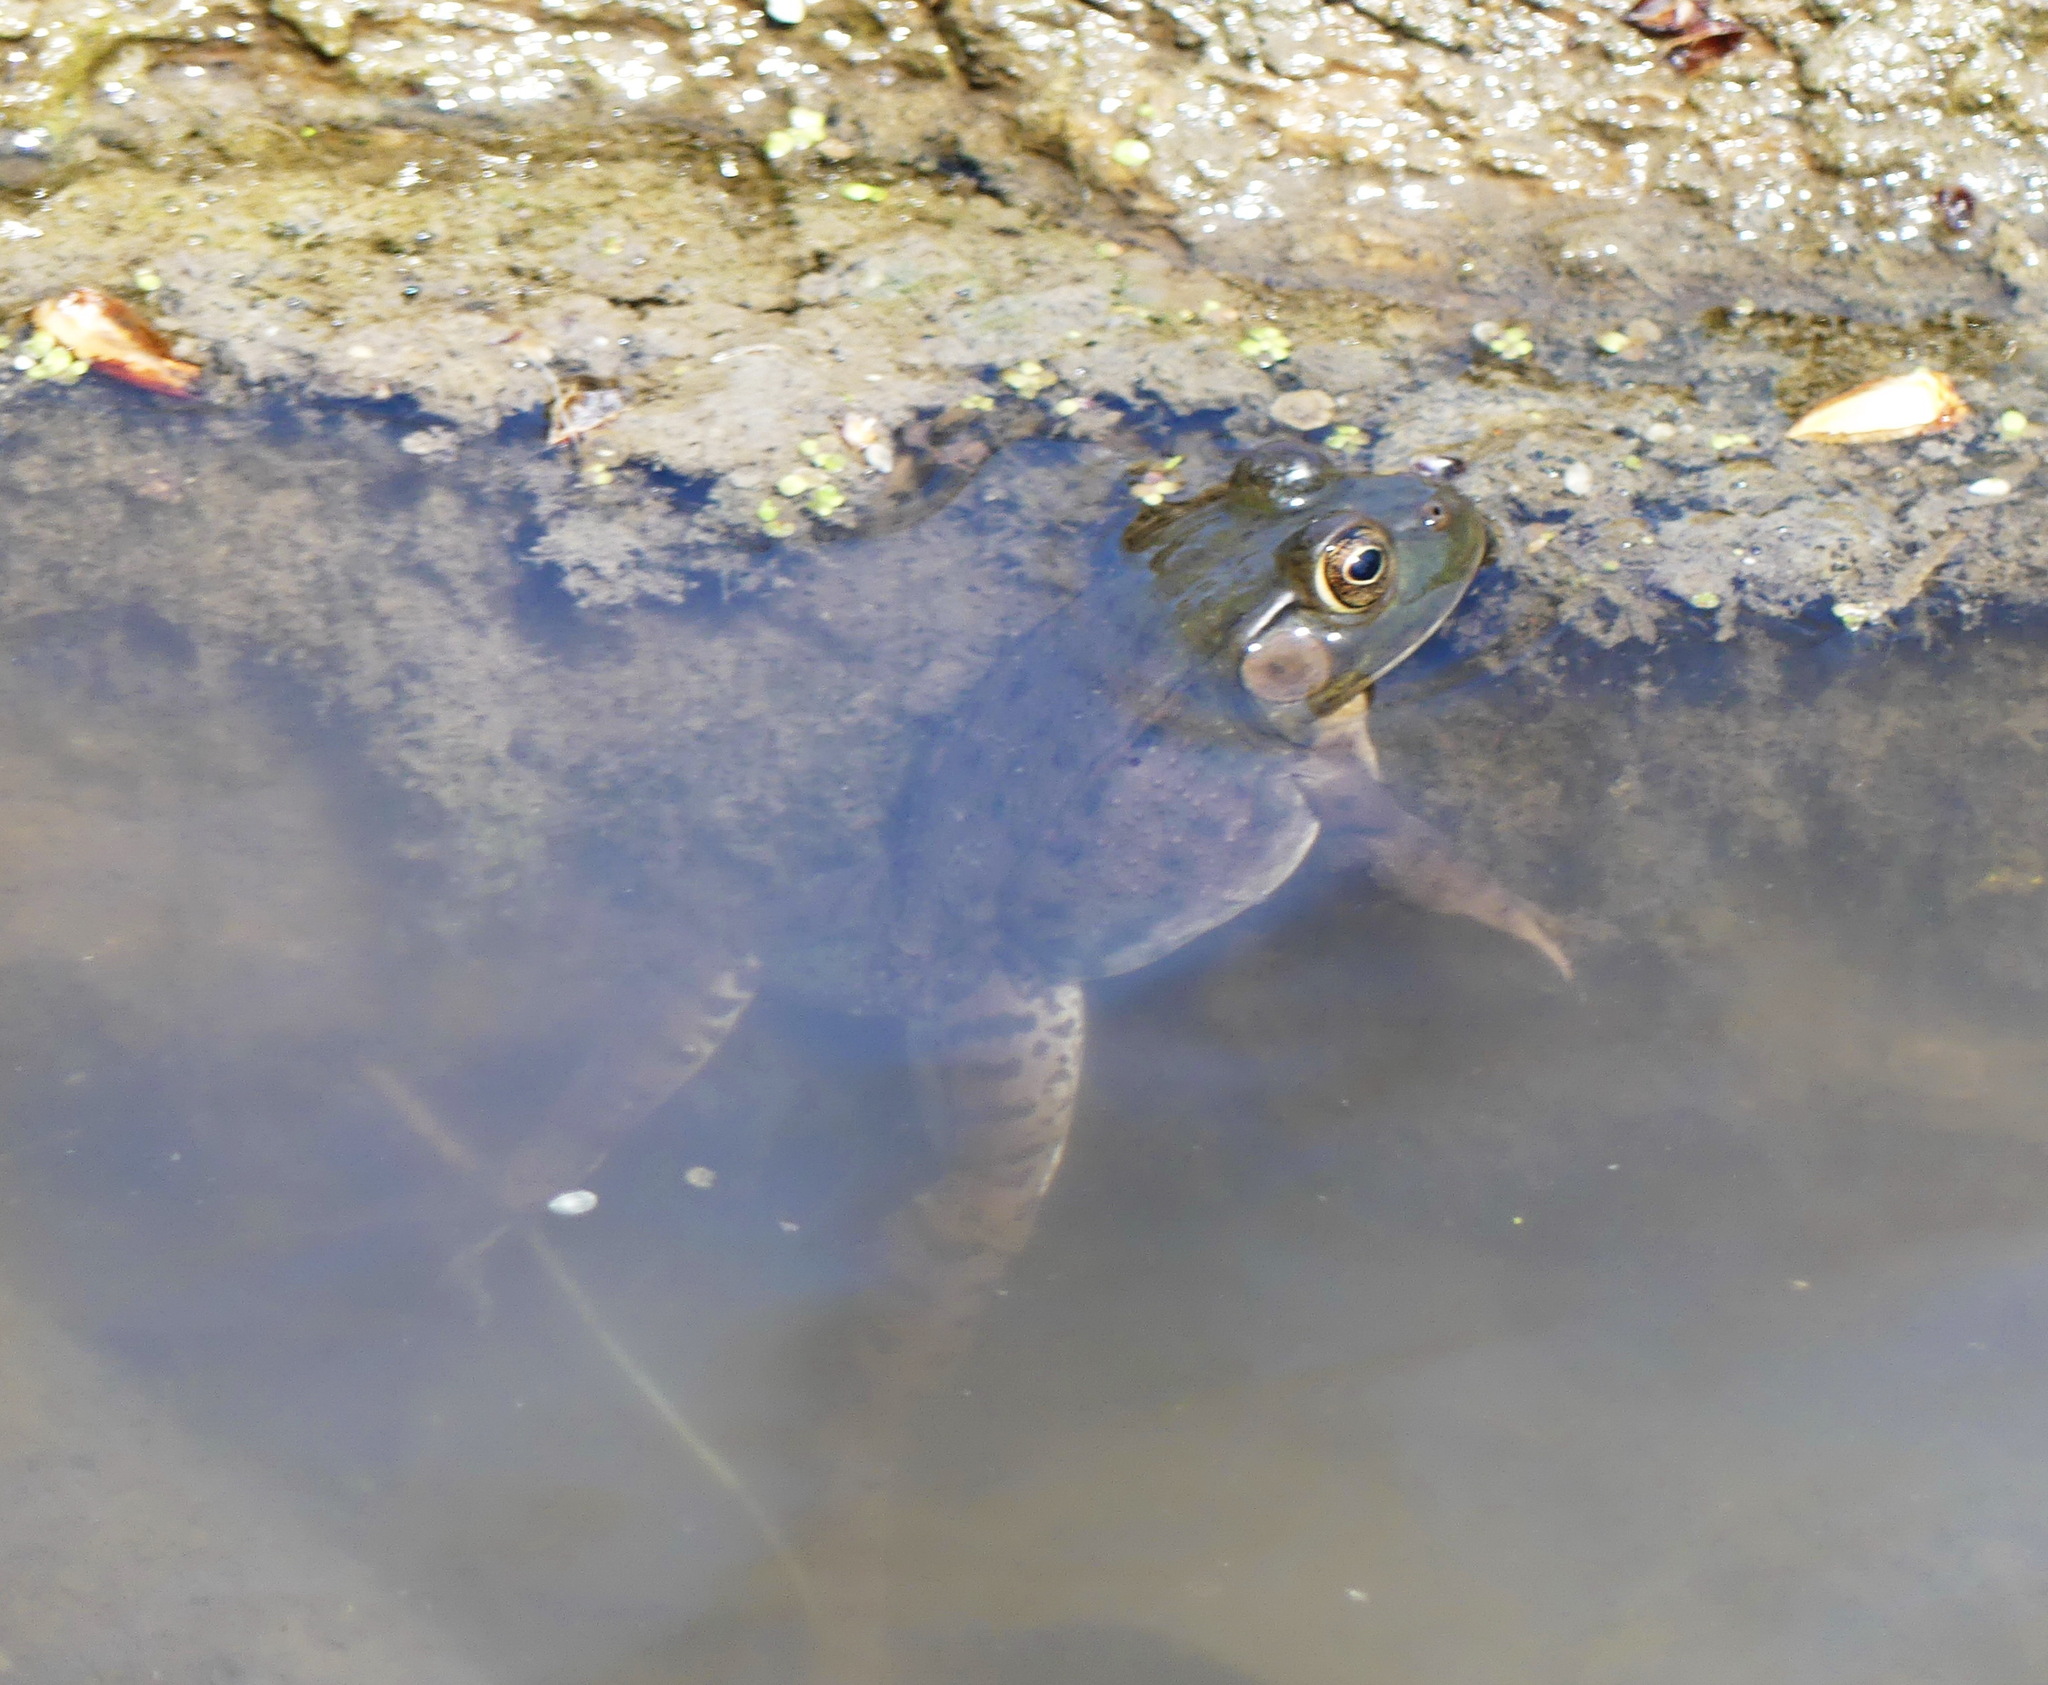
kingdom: Animalia
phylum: Chordata
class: Amphibia
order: Anura
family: Ranidae
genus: Lithobates
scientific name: Lithobates clamitans
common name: Green frog
